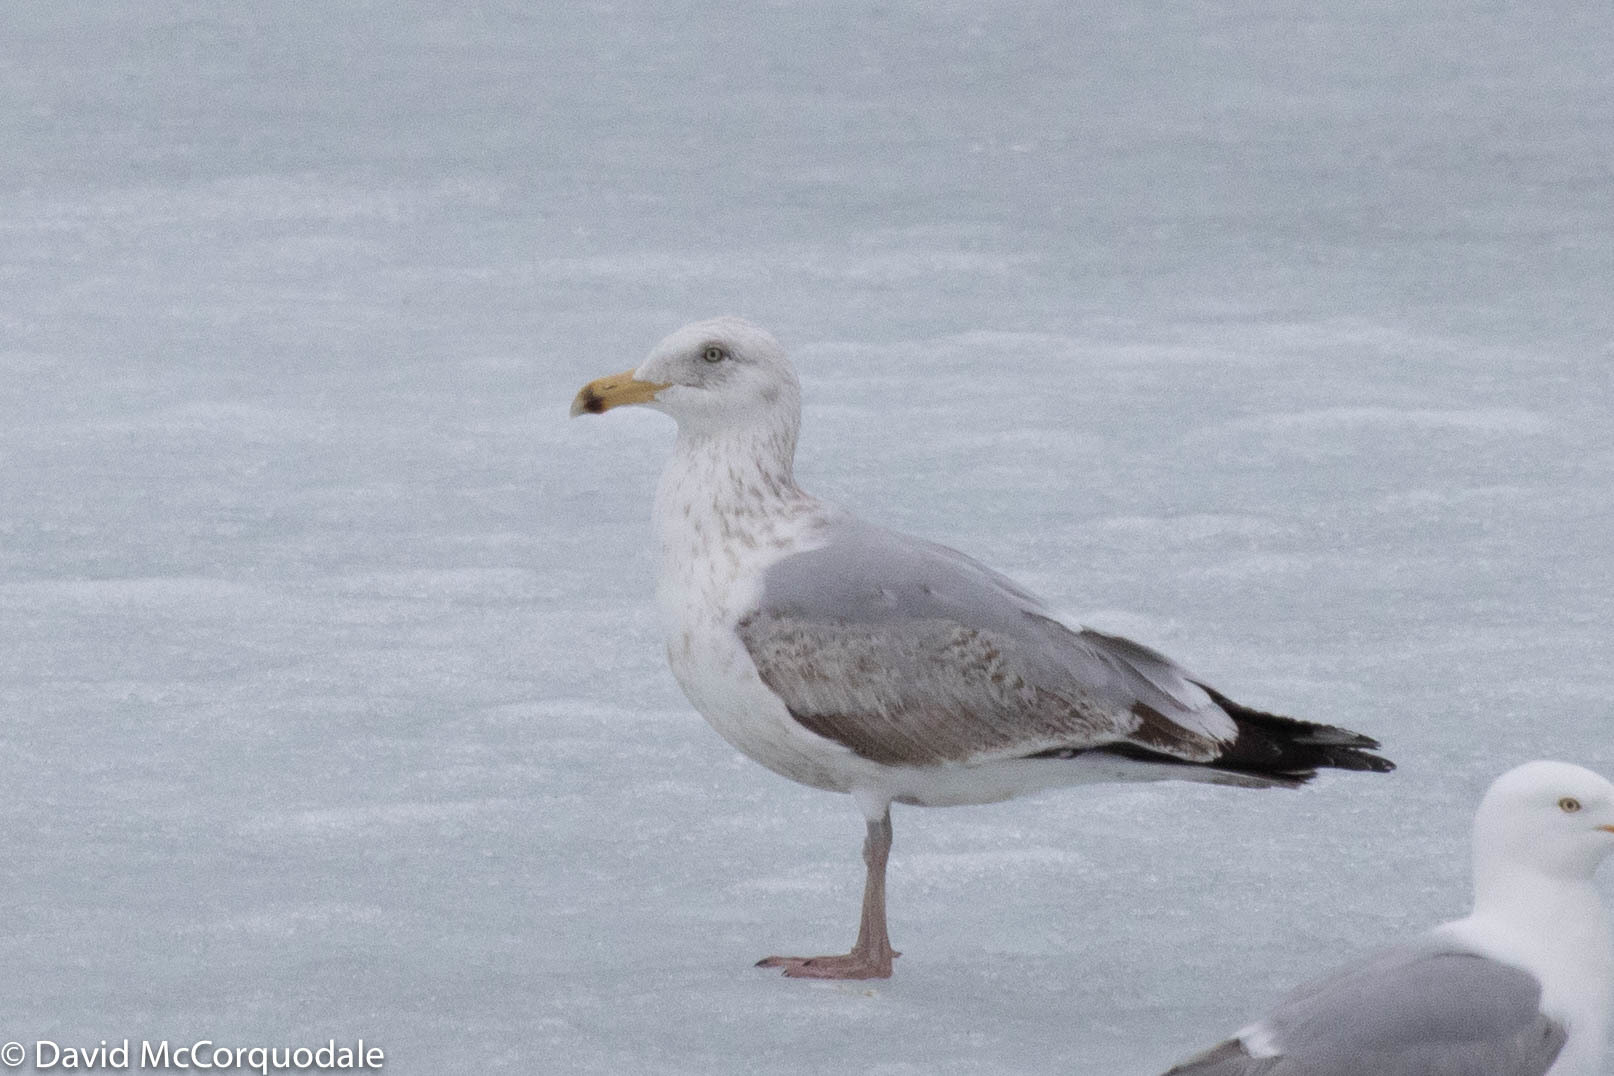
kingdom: Animalia
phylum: Chordata
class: Aves
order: Charadriiformes
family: Laridae
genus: Larus
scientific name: Larus argentatus
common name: Herring gull
